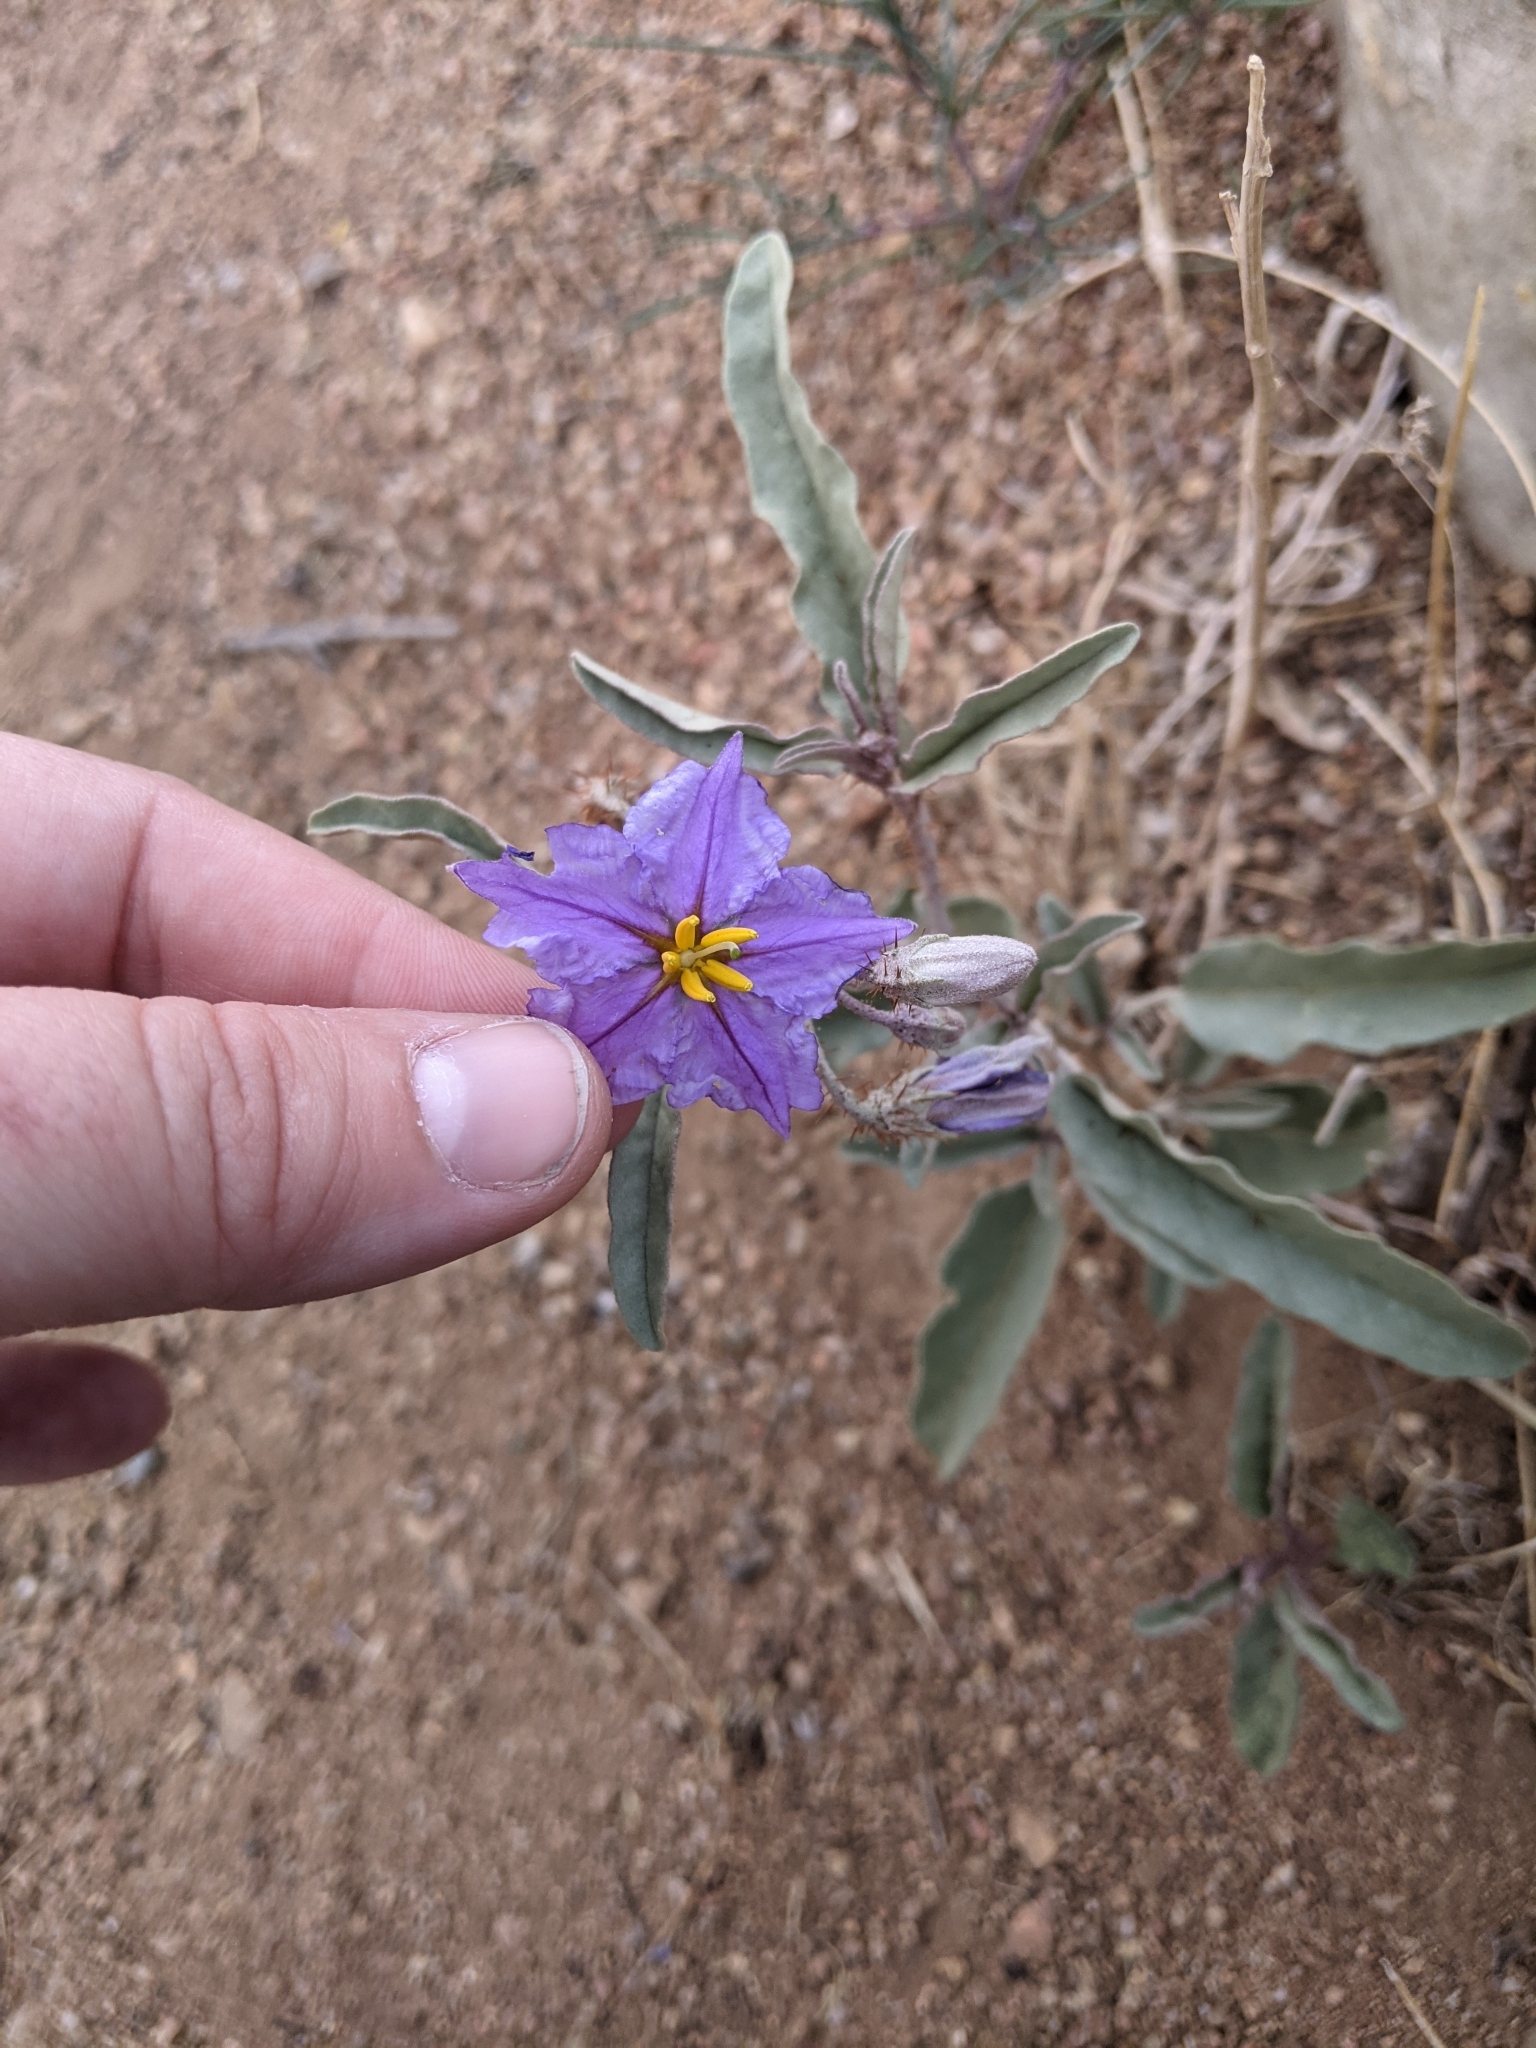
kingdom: Plantae
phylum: Tracheophyta
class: Magnoliopsida
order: Solanales
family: Solanaceae
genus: Solanum
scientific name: Solanum elaeagnifolium
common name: Silverleaf nightshade
